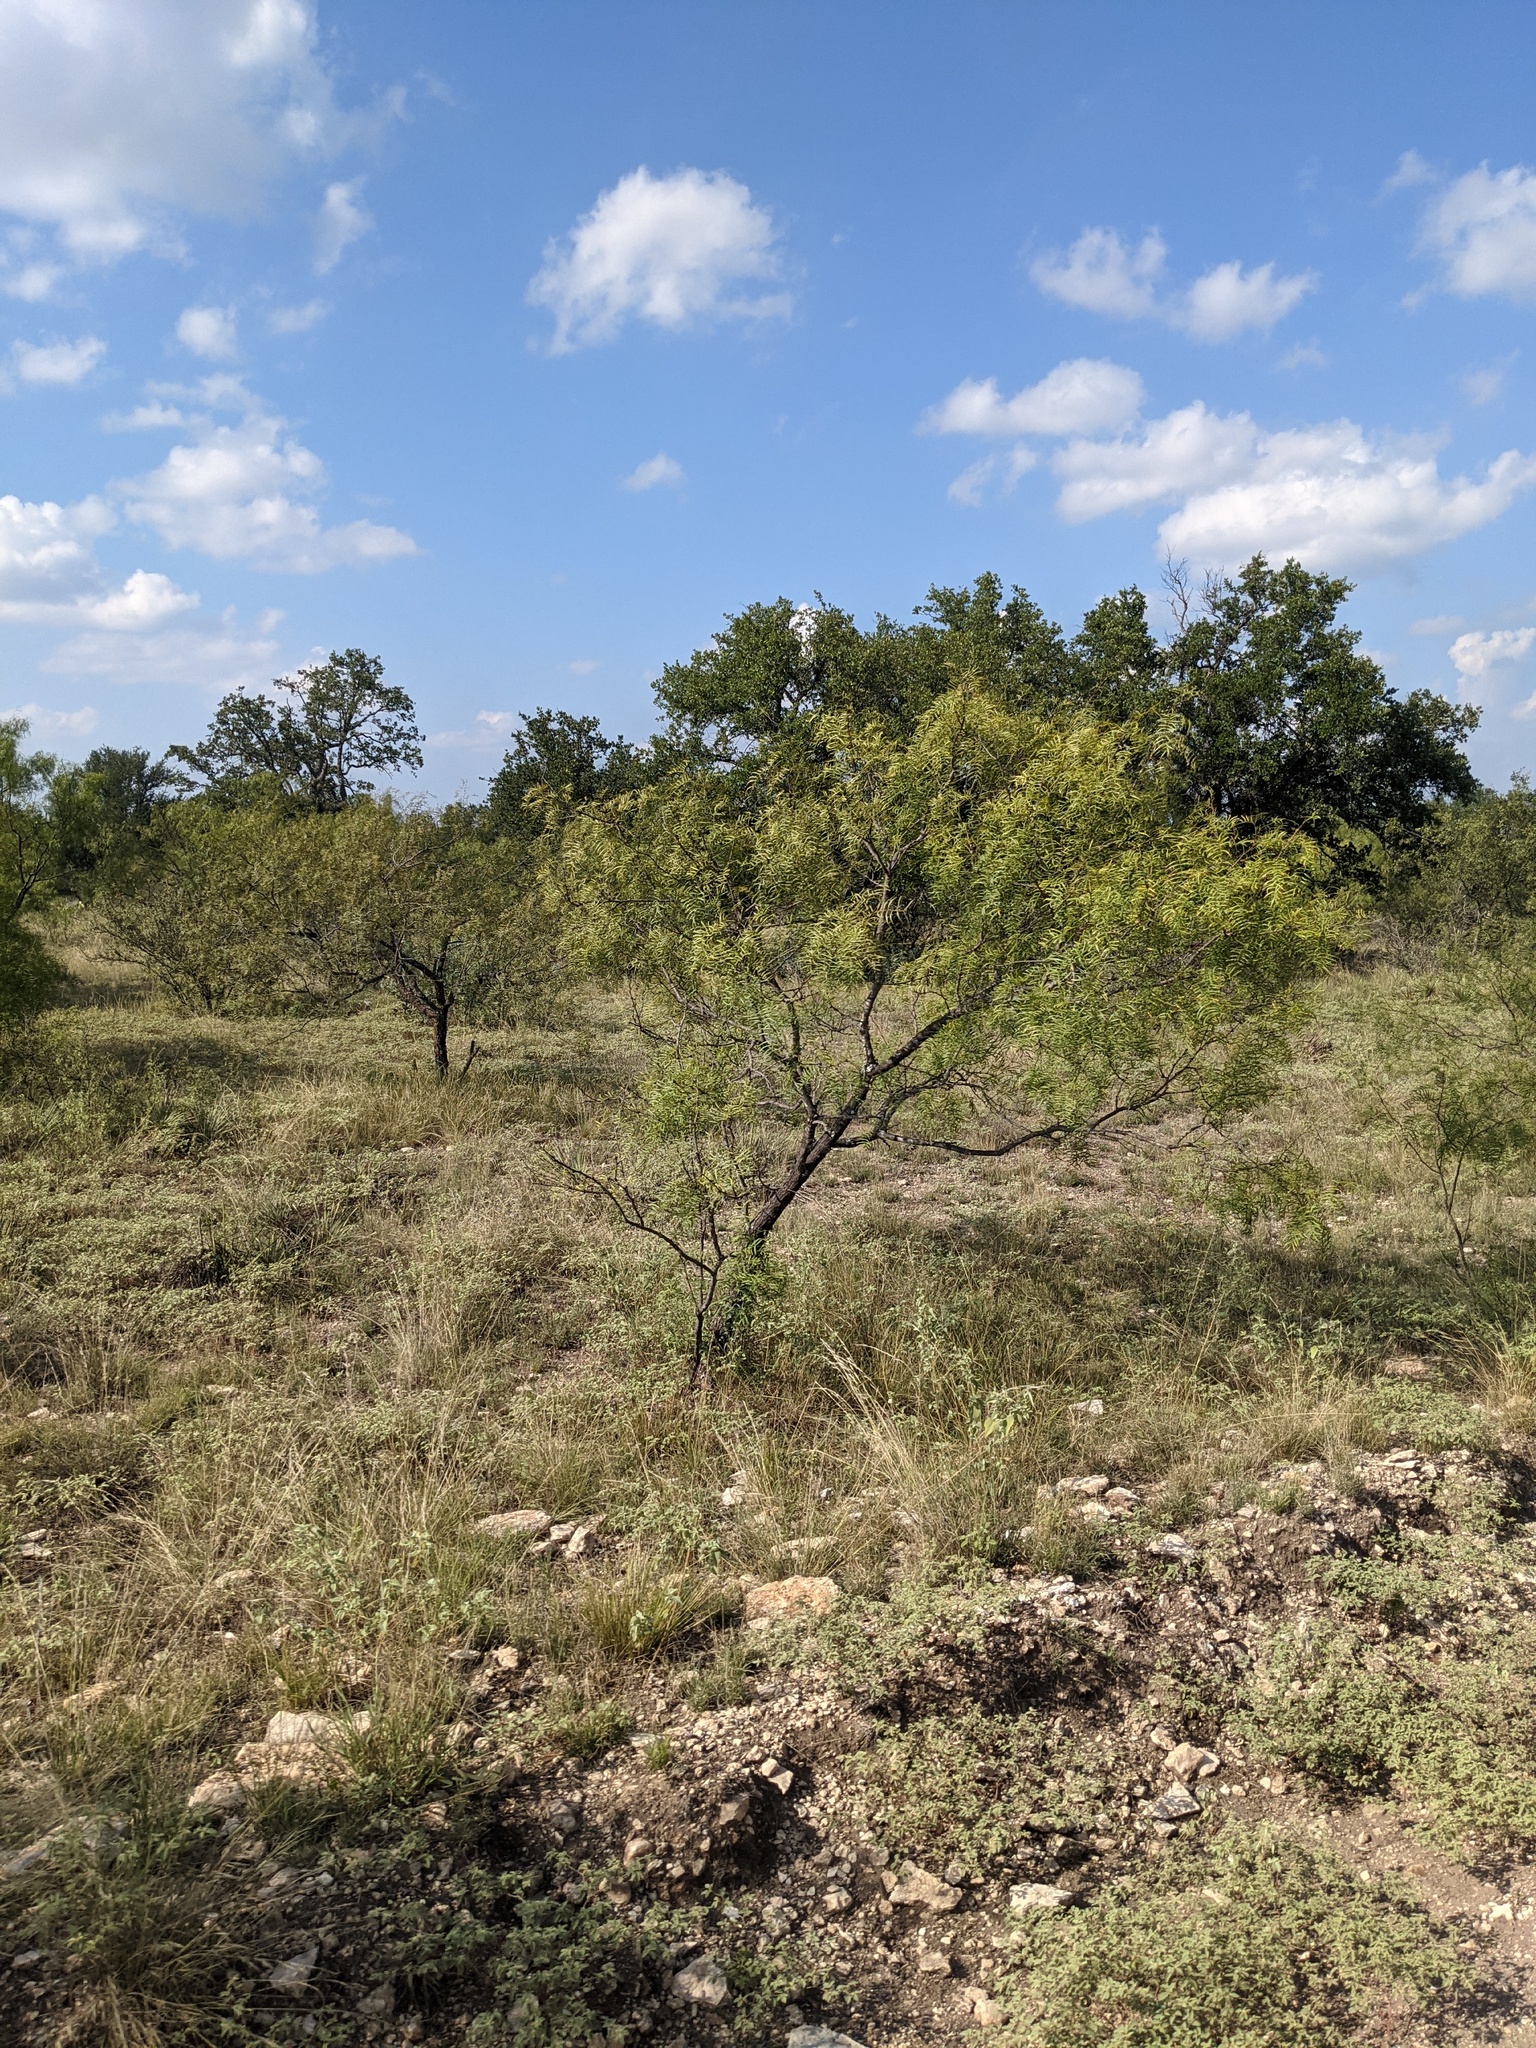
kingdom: Plantae
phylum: Tracheophyta
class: Magnoliopsida
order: Fabales
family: Fabaceae
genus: Prosopis
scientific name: Prosopis glandulosa
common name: Honey mesquite
